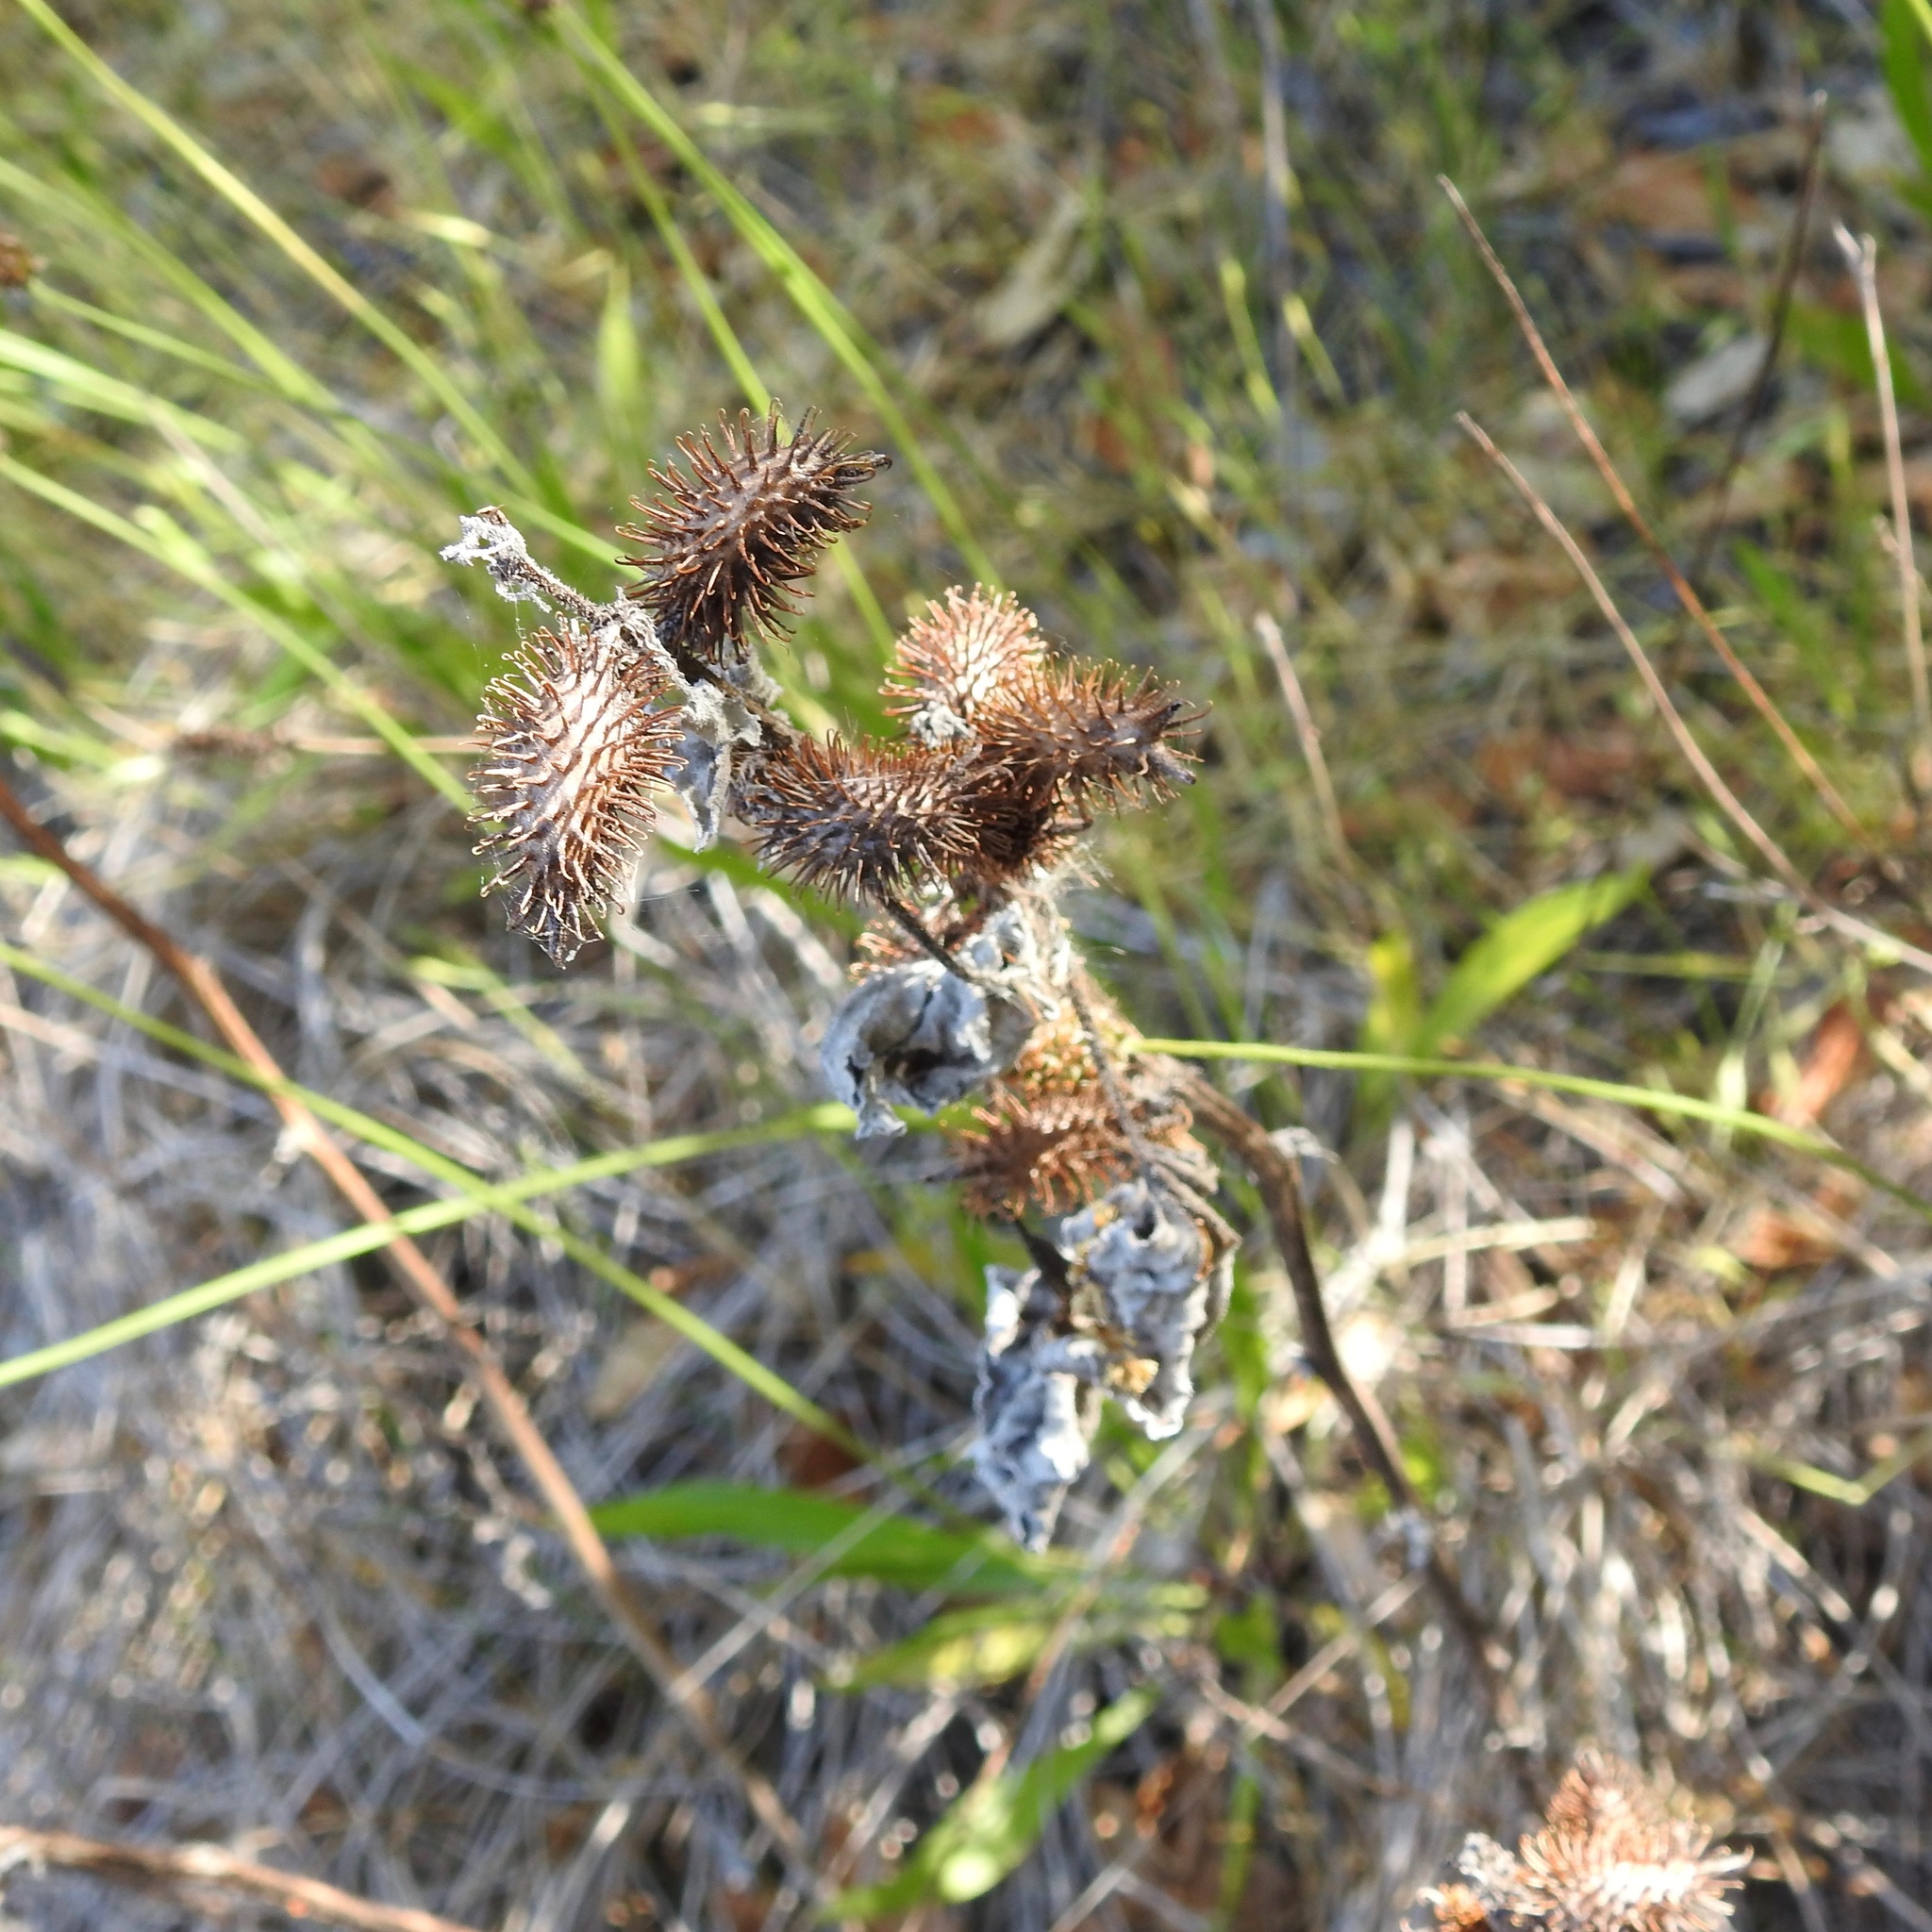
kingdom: Plantae
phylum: Tracheophyta
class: Magnoliopsida
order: Asterales
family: Asteraceae
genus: Xanthium
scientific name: Xanthium strumarium
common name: Rough cocklebur
